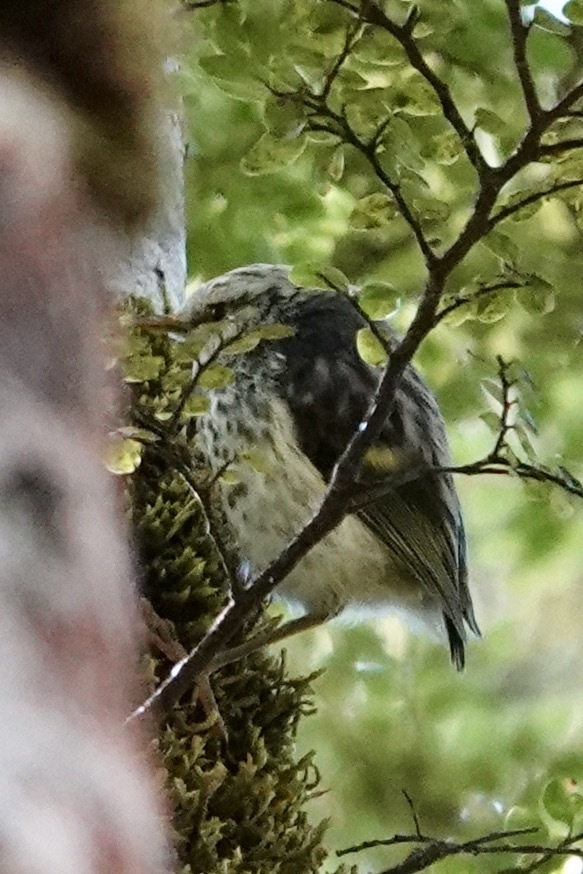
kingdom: Animalia
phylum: Chordata
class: Aves
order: Passeriformes
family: Acanthisittidae
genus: Acanthisitta
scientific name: Acanthisitta chloris
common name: Rifleman
